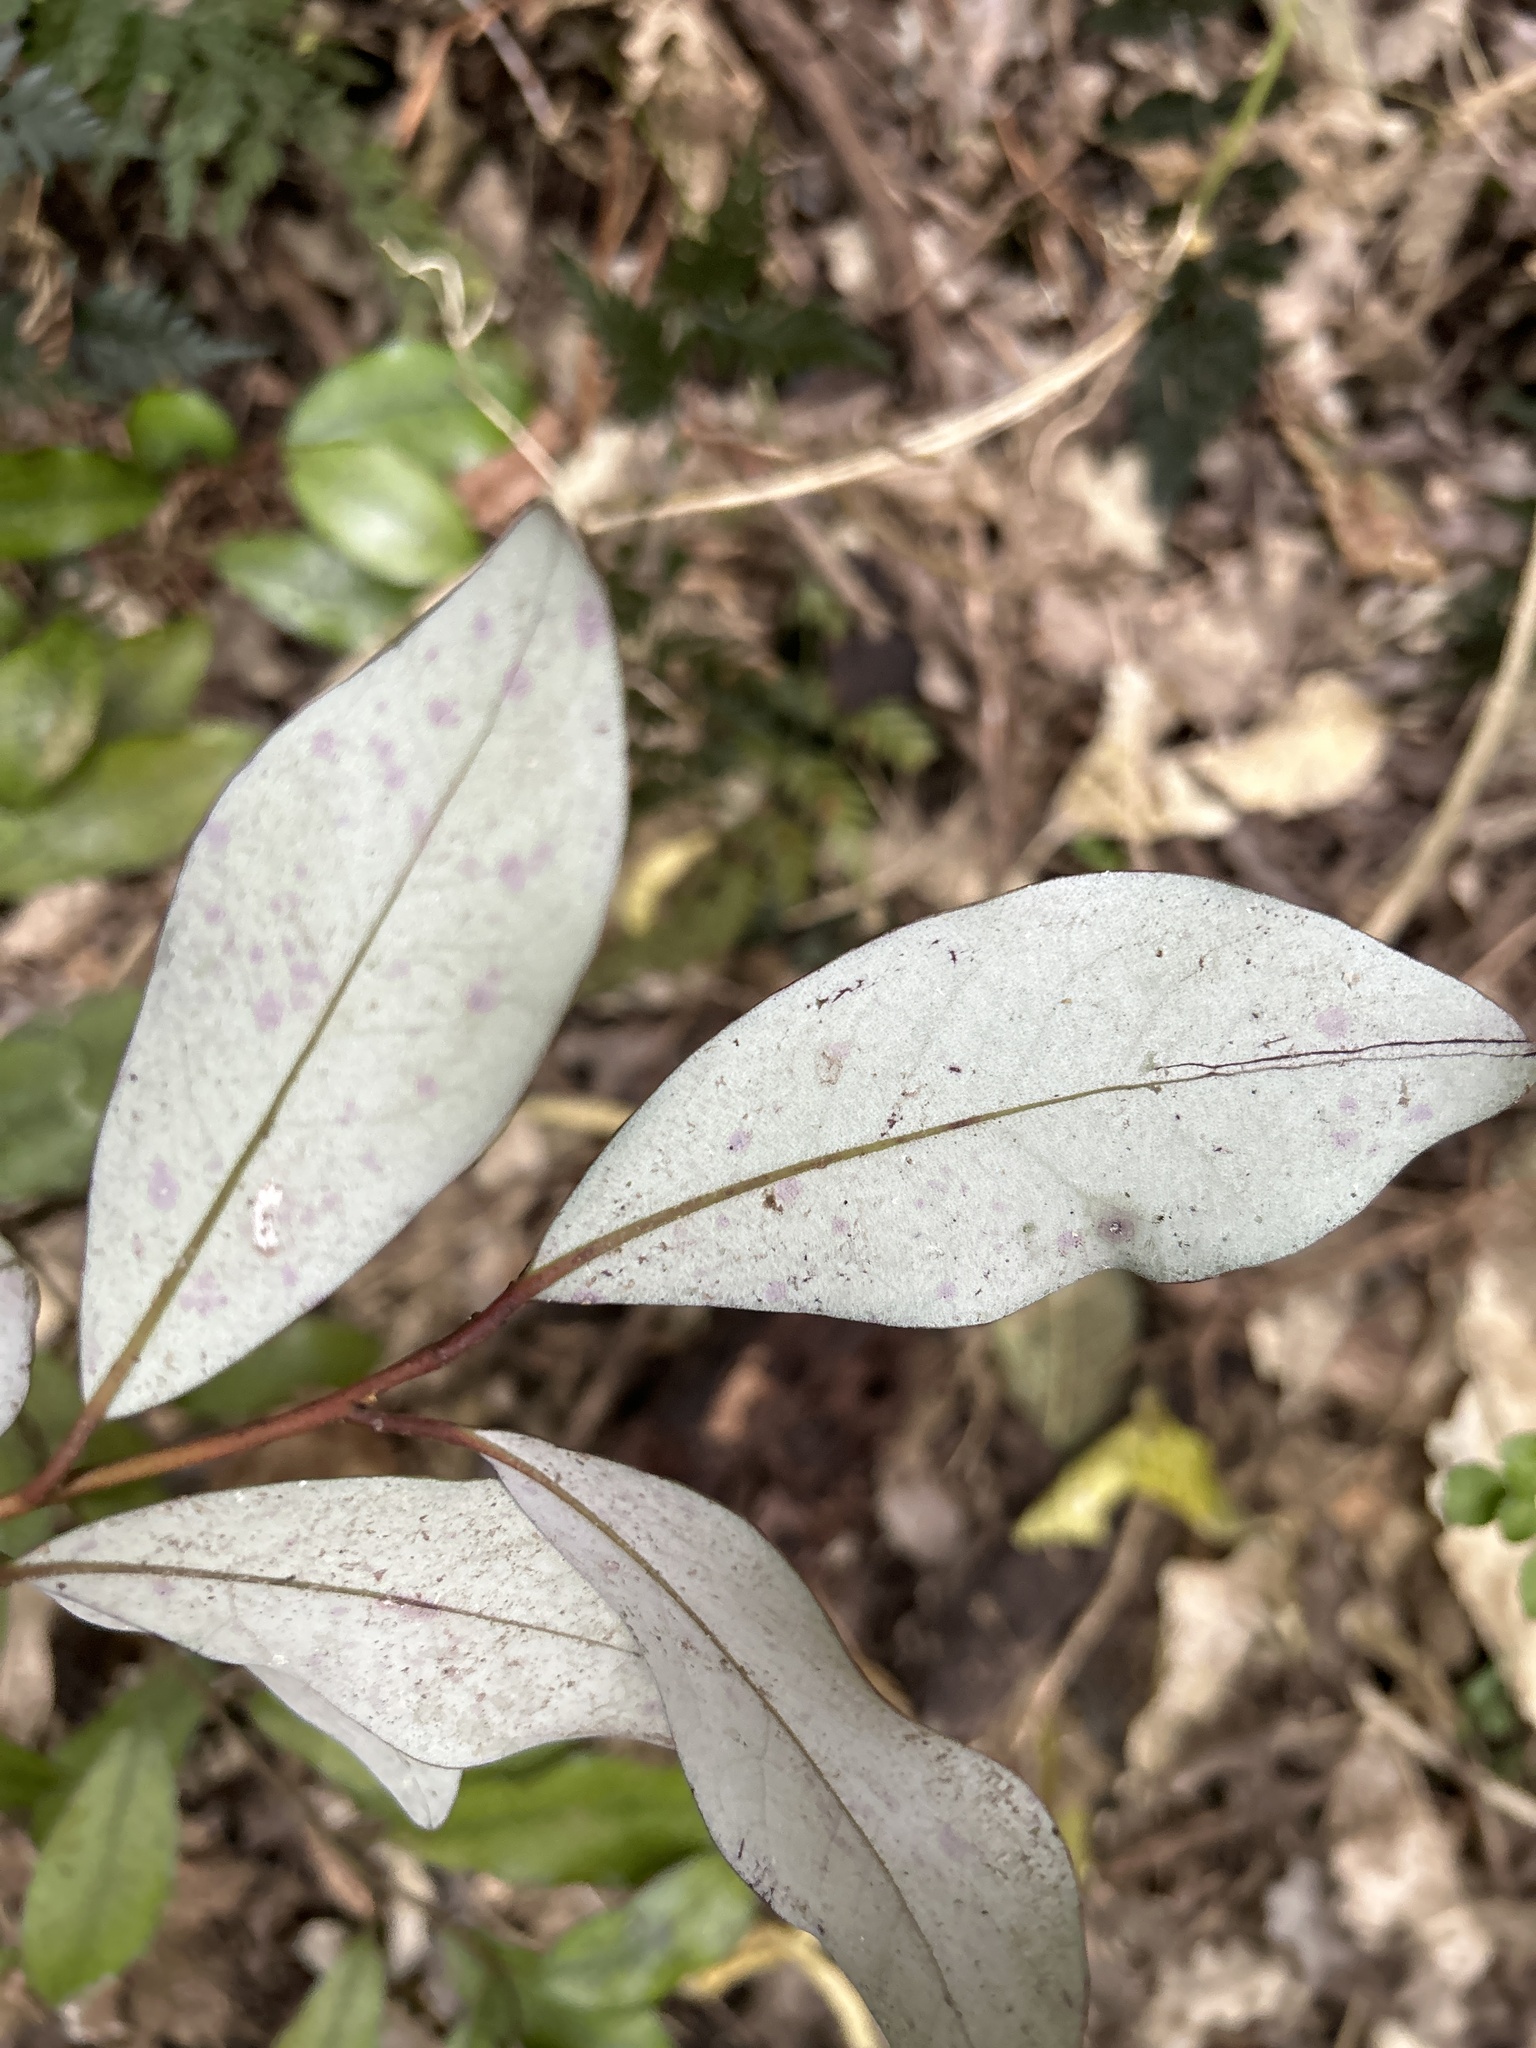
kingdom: Plantae
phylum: Tracheophyta
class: Magnoliopsida
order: Canellales
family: Winteraceae
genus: Pseudowintera
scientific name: Pseudowintera colorata
